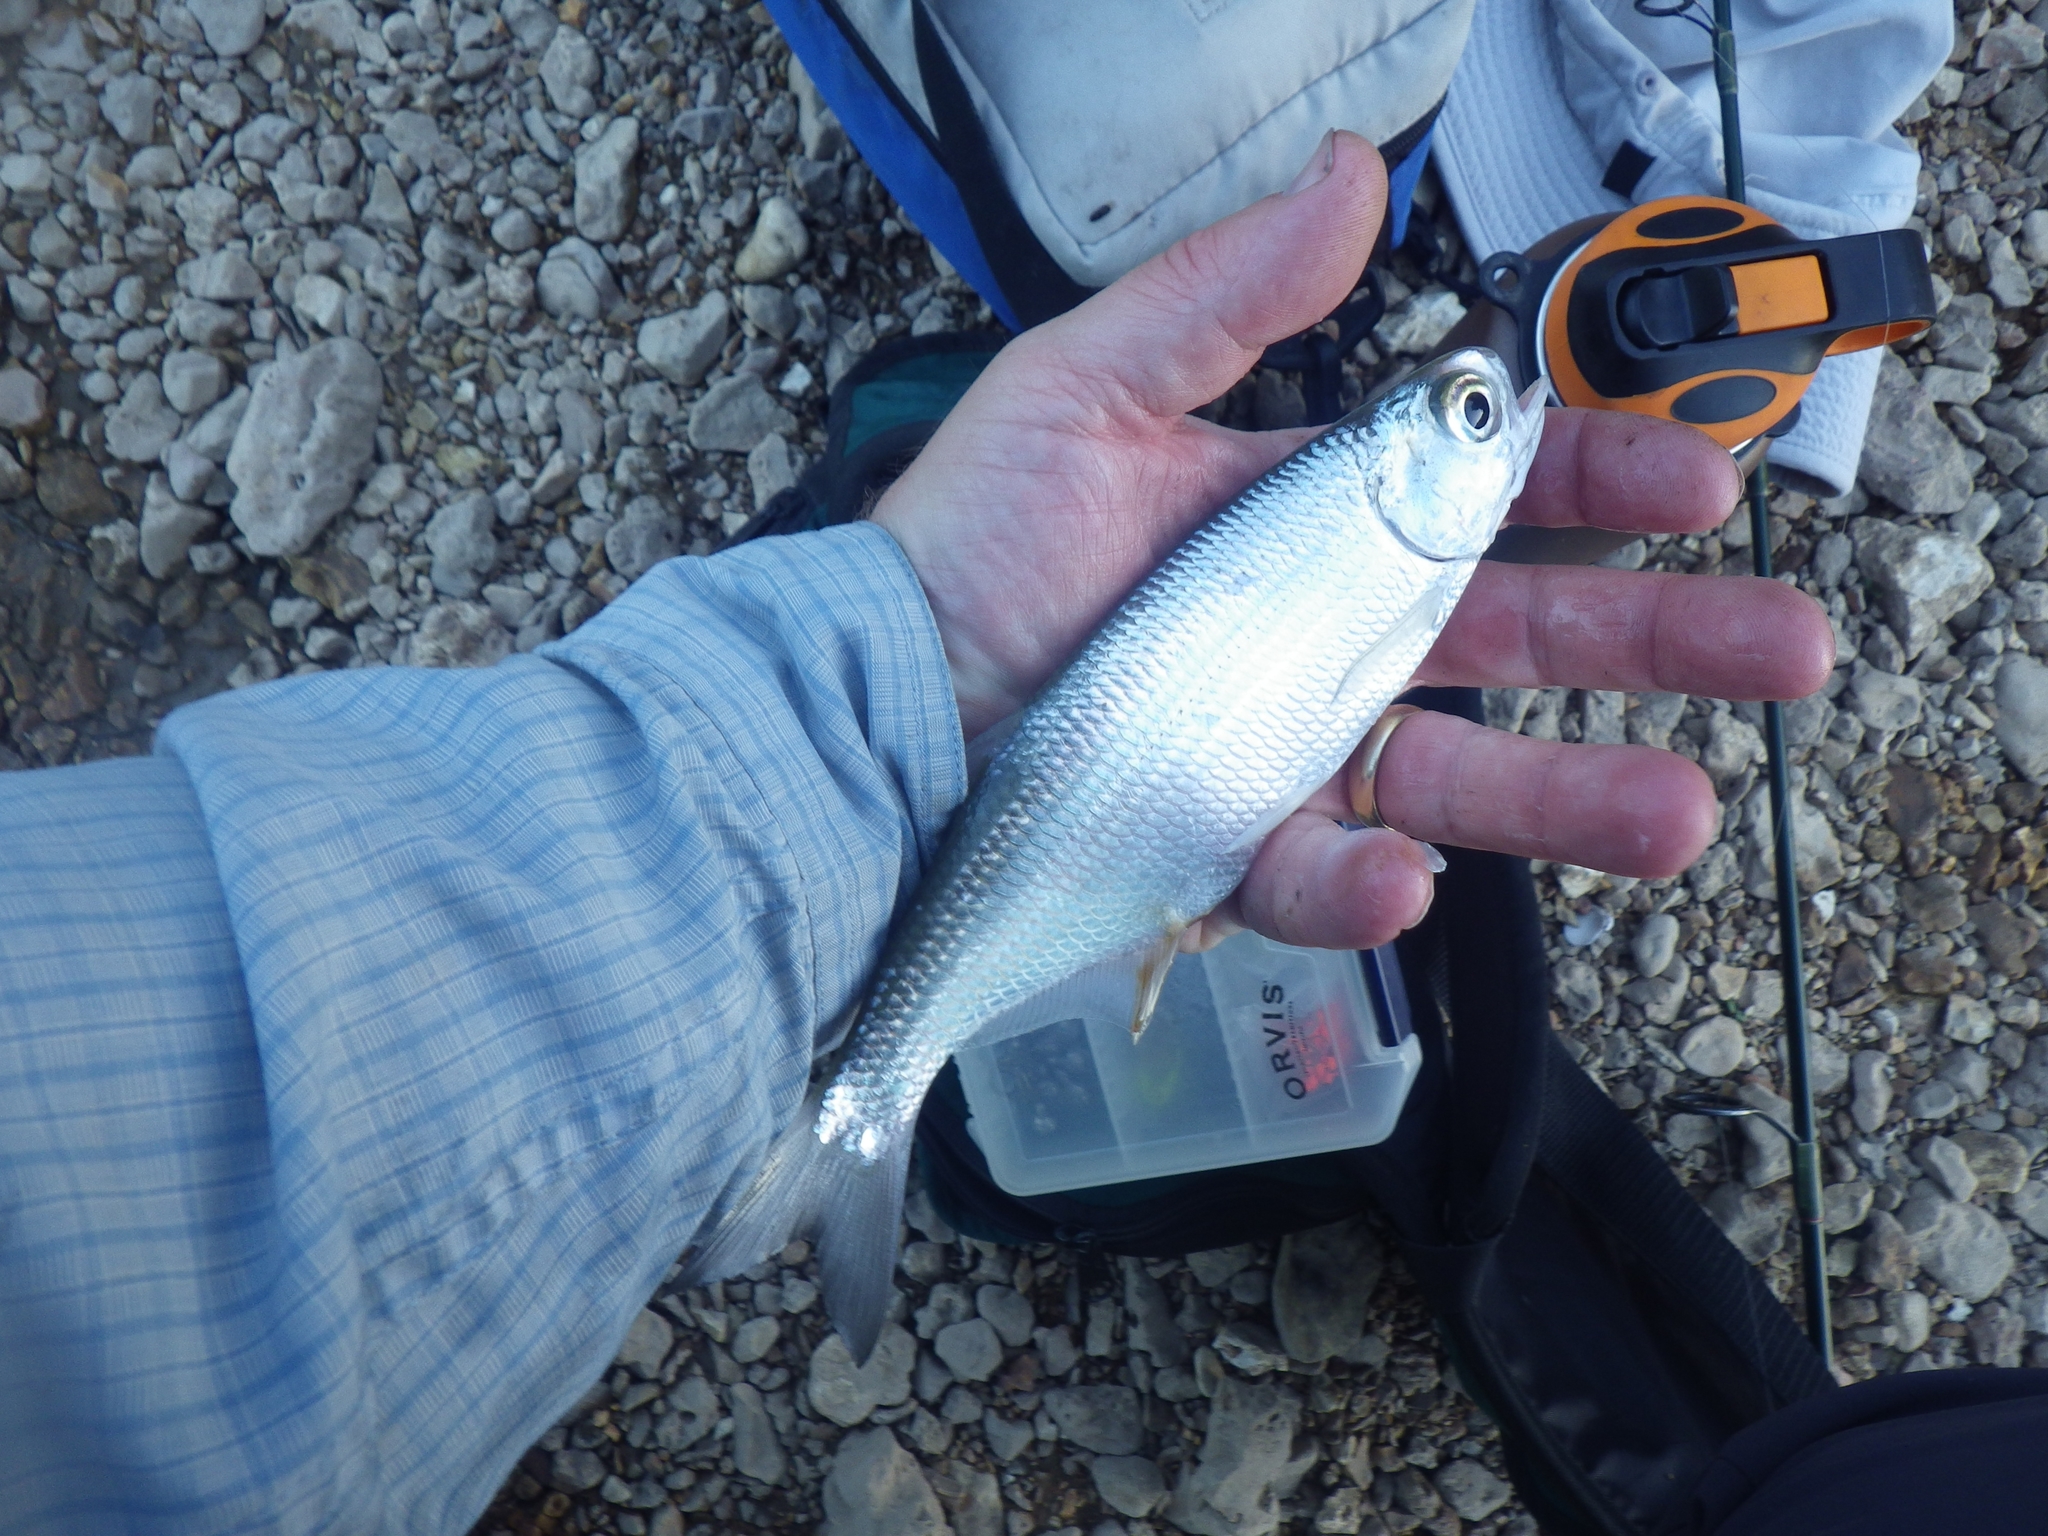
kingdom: Animalia
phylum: Chordata
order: Osteoglossiformes
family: Hiodontidae
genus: Hiodon
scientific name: Hiodon tergisus
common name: Mooneye
